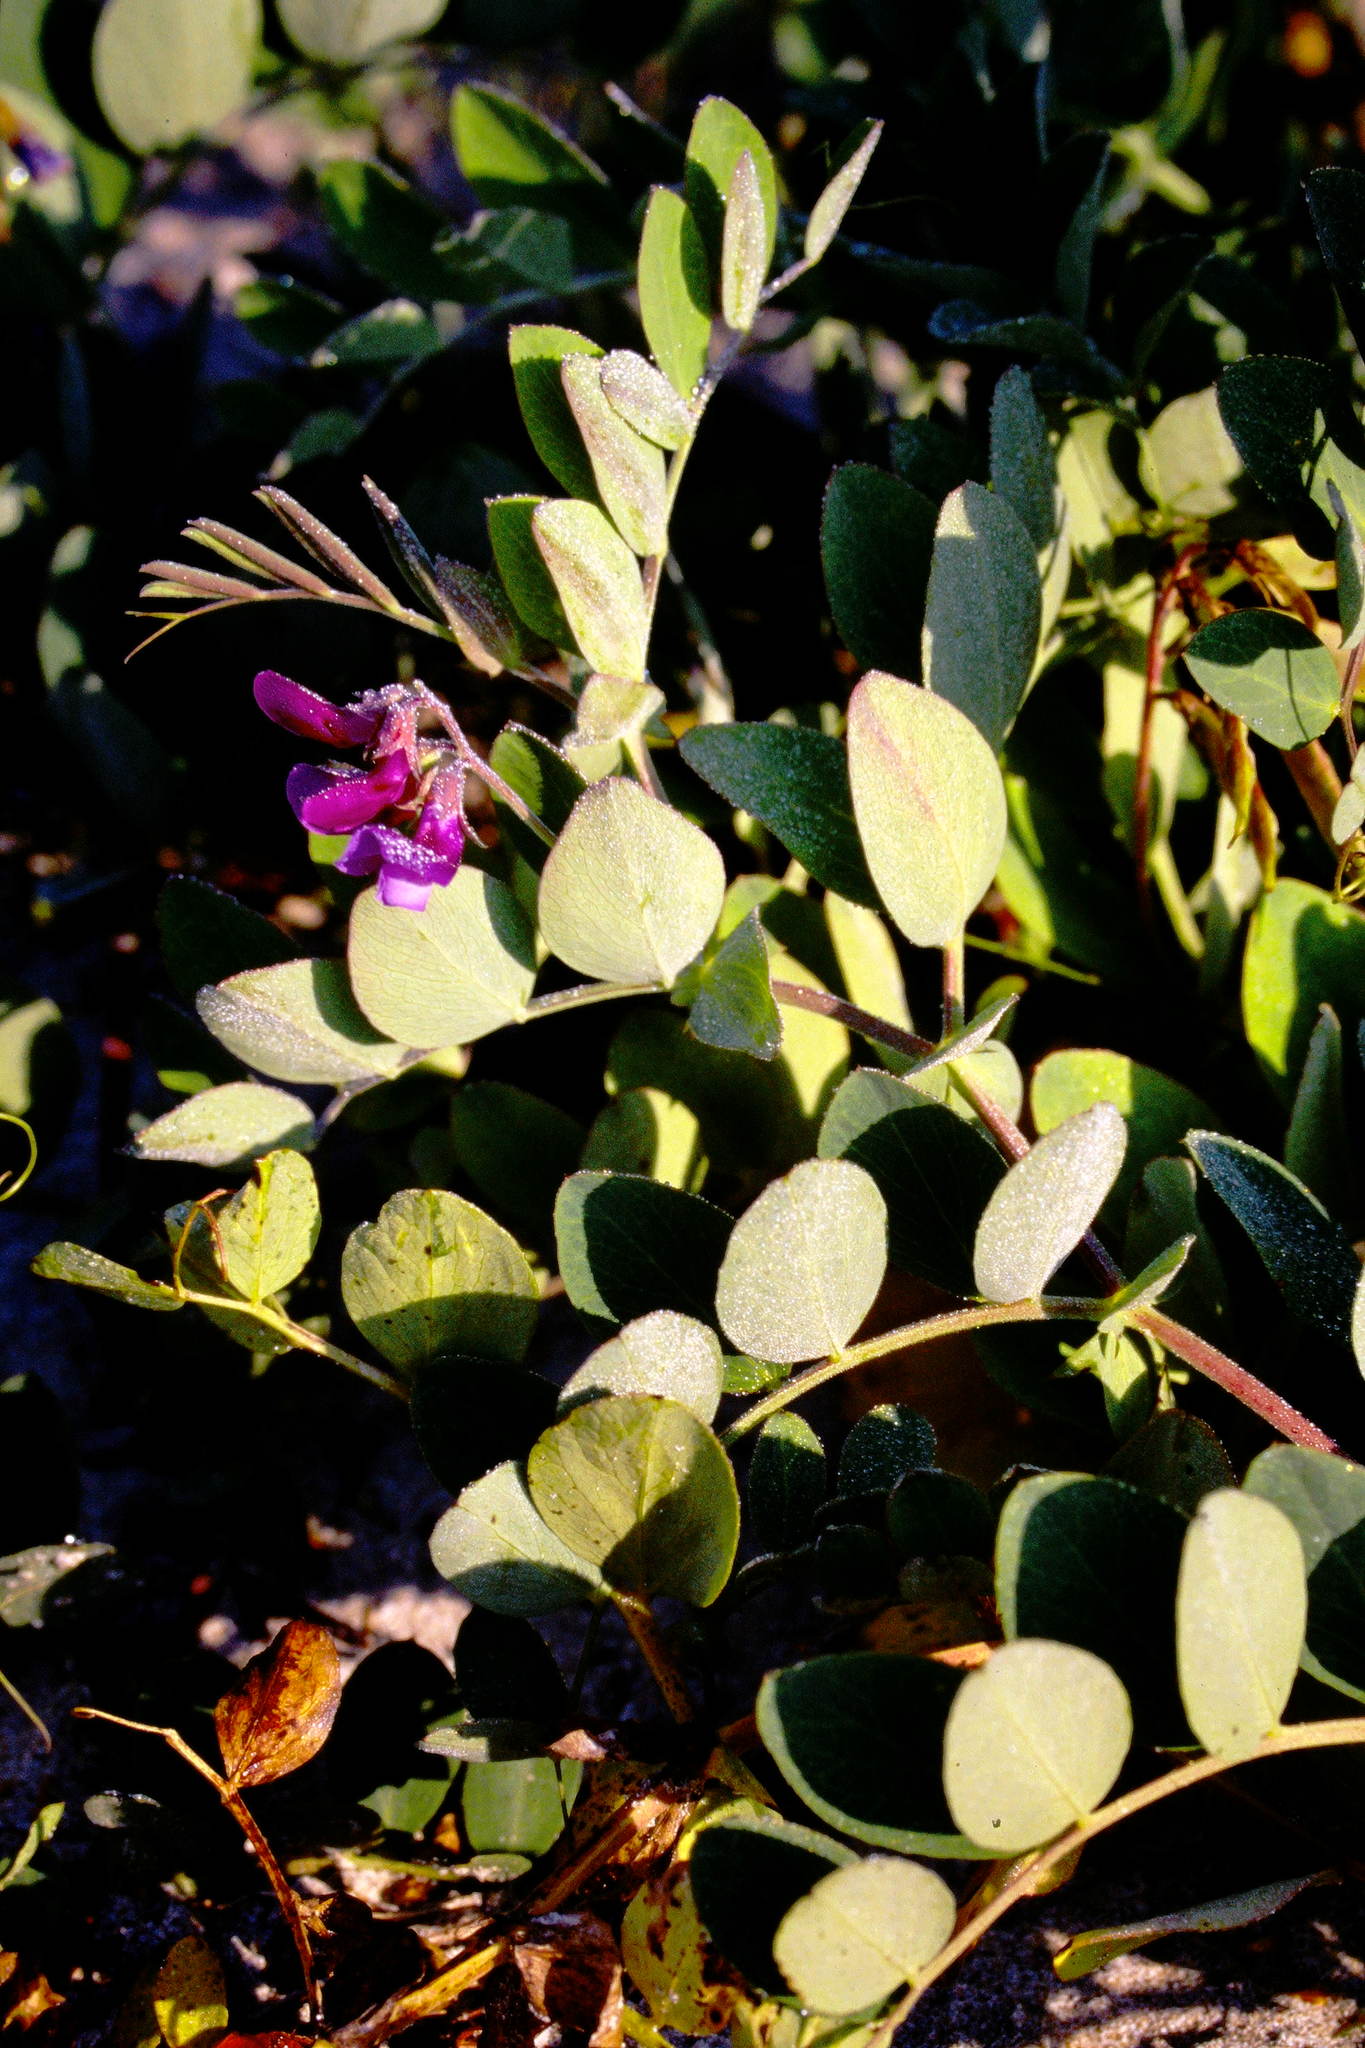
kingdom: Plantae
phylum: Tracheophyta
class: Magnoliopsida
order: Fabales
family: Fabaceae
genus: Lathyrus
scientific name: Lathyrus japonicus
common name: Sea pea
